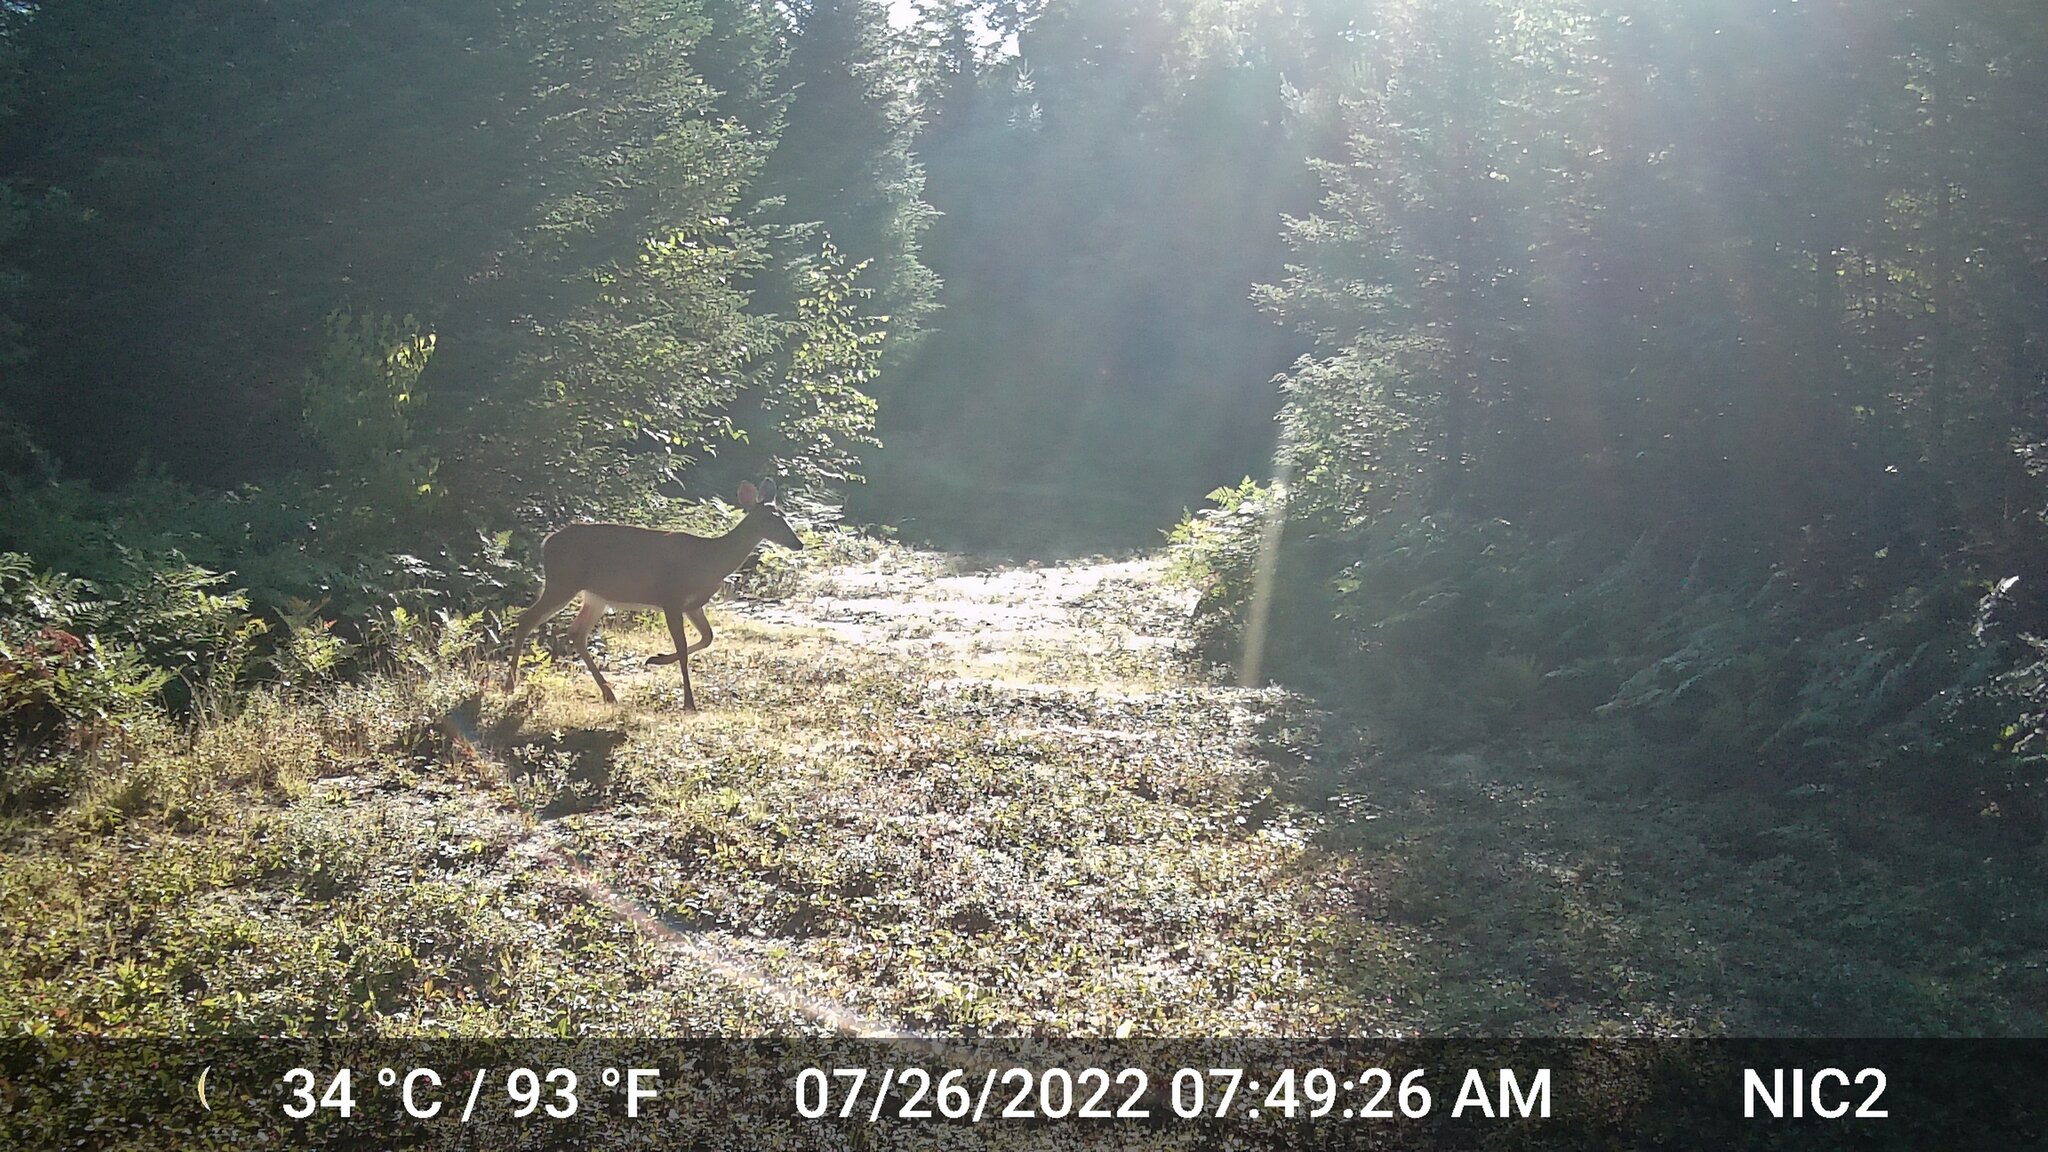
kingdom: Animalia
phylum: Chordata
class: Mammalia
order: Artiodactyla
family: Cervidae
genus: Odocoileus
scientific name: Odocoileus virginianus
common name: White-tailed deer
